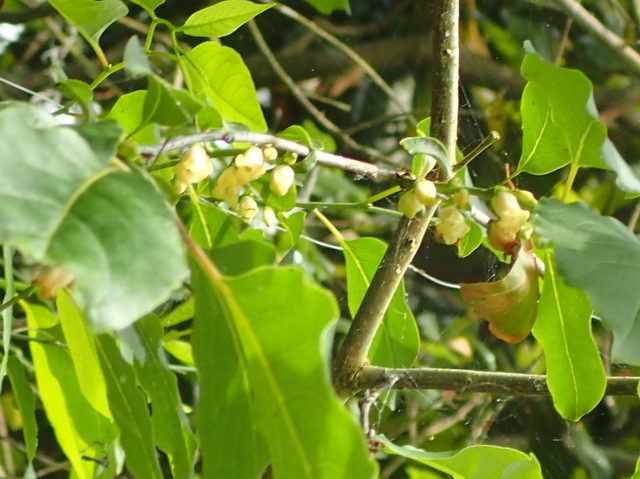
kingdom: Plantae
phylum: Tracheophyta
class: Magnoliopsida
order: Ericales
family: Ebenaceae
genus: Diospyros
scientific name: Diospyros virginiana
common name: Persimmon
